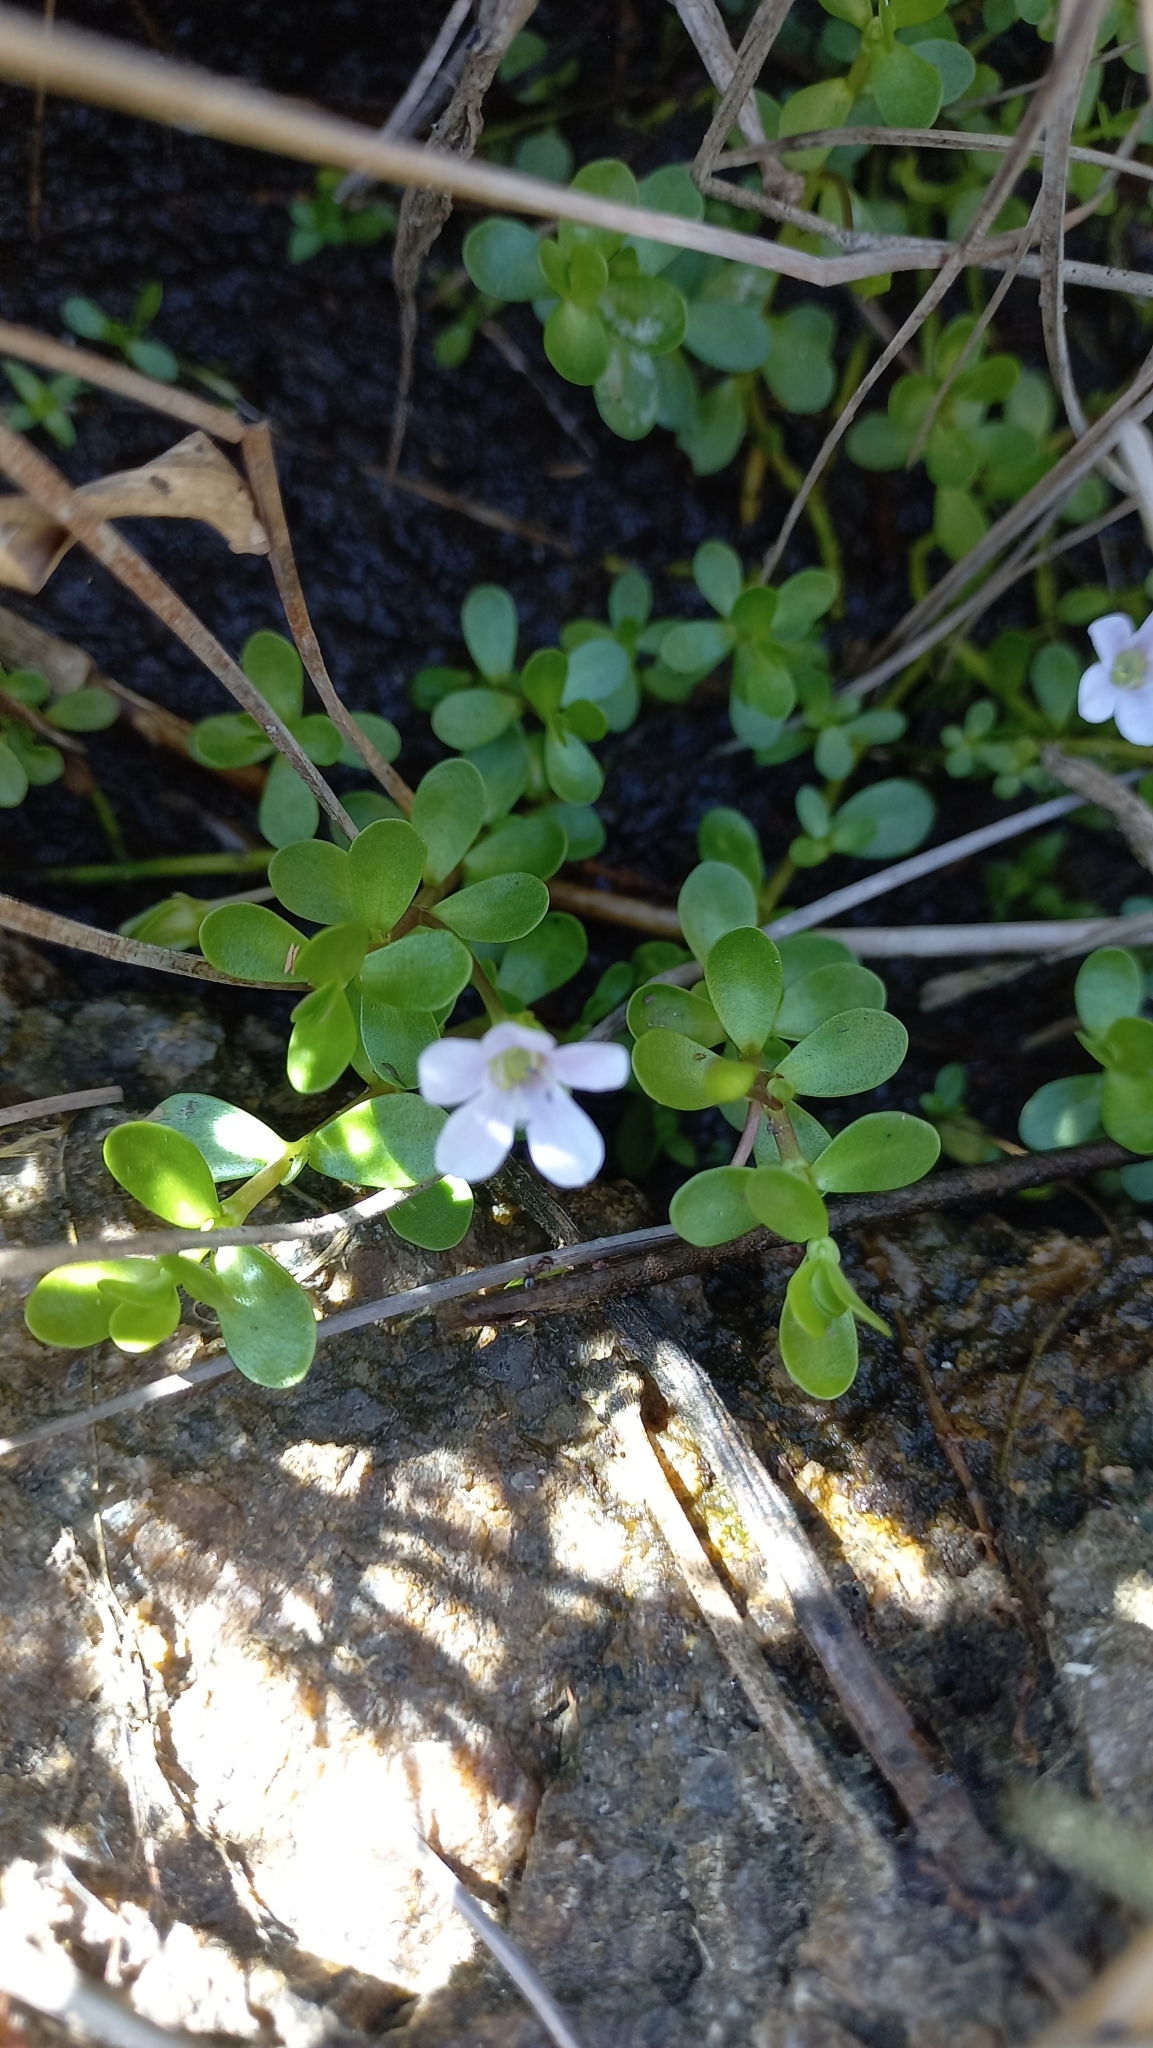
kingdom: Plantae
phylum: Tracheophyta
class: Magnoliopsida
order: Lamiales
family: Plantaginaceae
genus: Bacopa
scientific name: Bacopa monnieri
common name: Indian-pennywort
